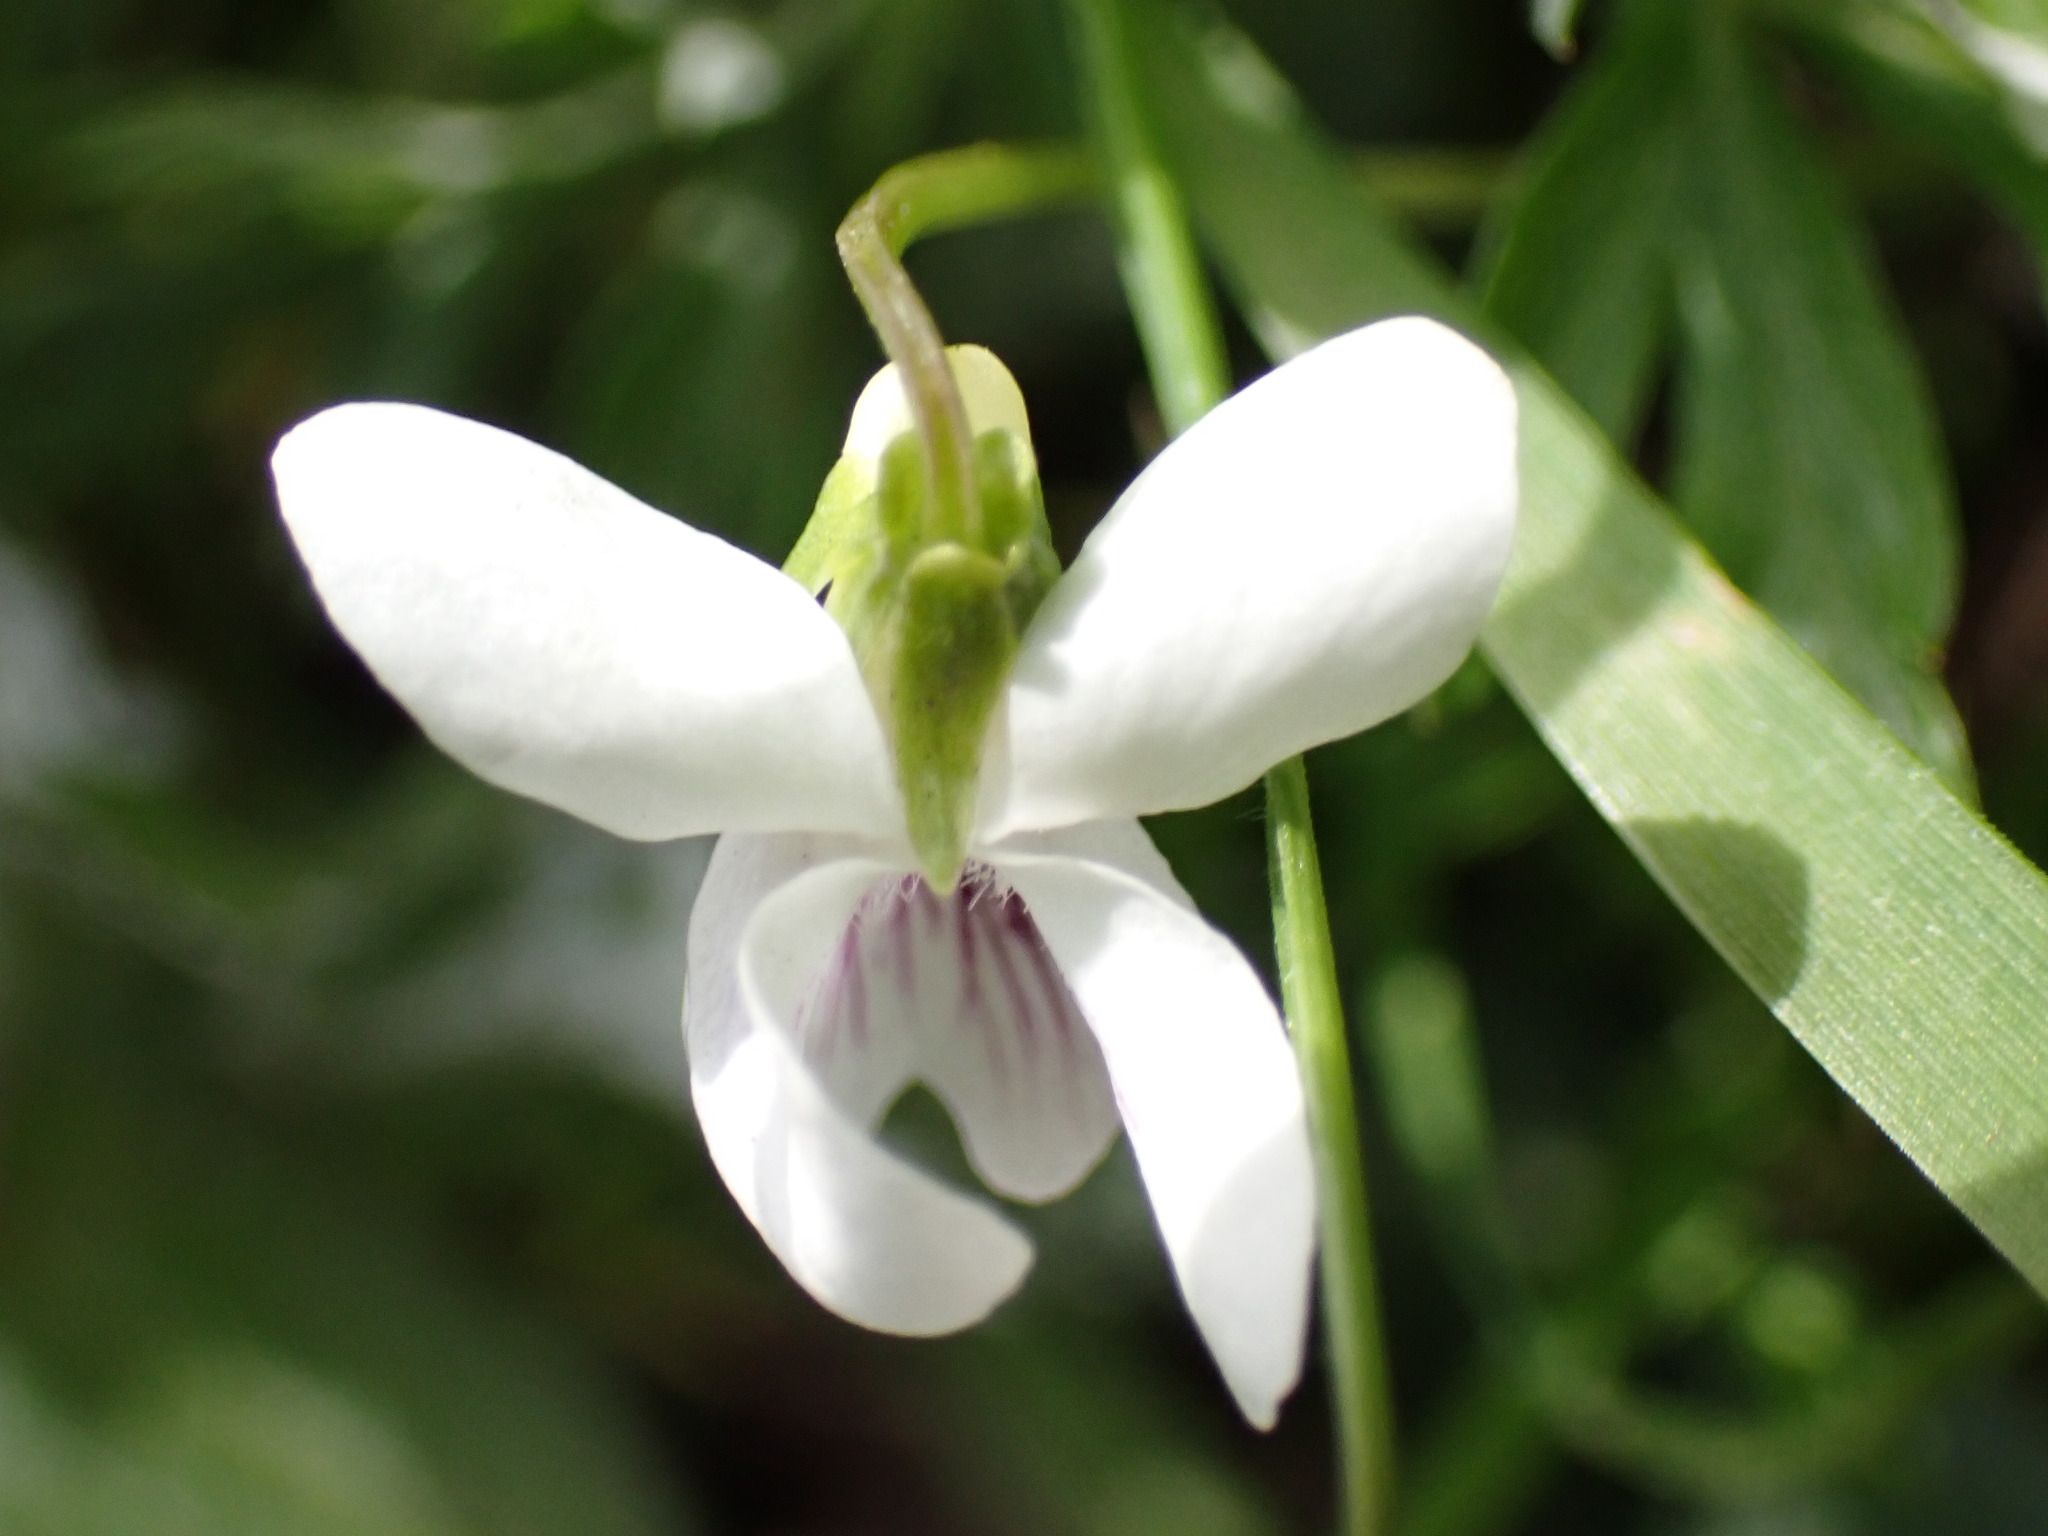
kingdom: Plantae
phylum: Tracheophyta
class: Magnoliopsida
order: Malpighiales
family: Violaceae
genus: Viola
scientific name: Viola
